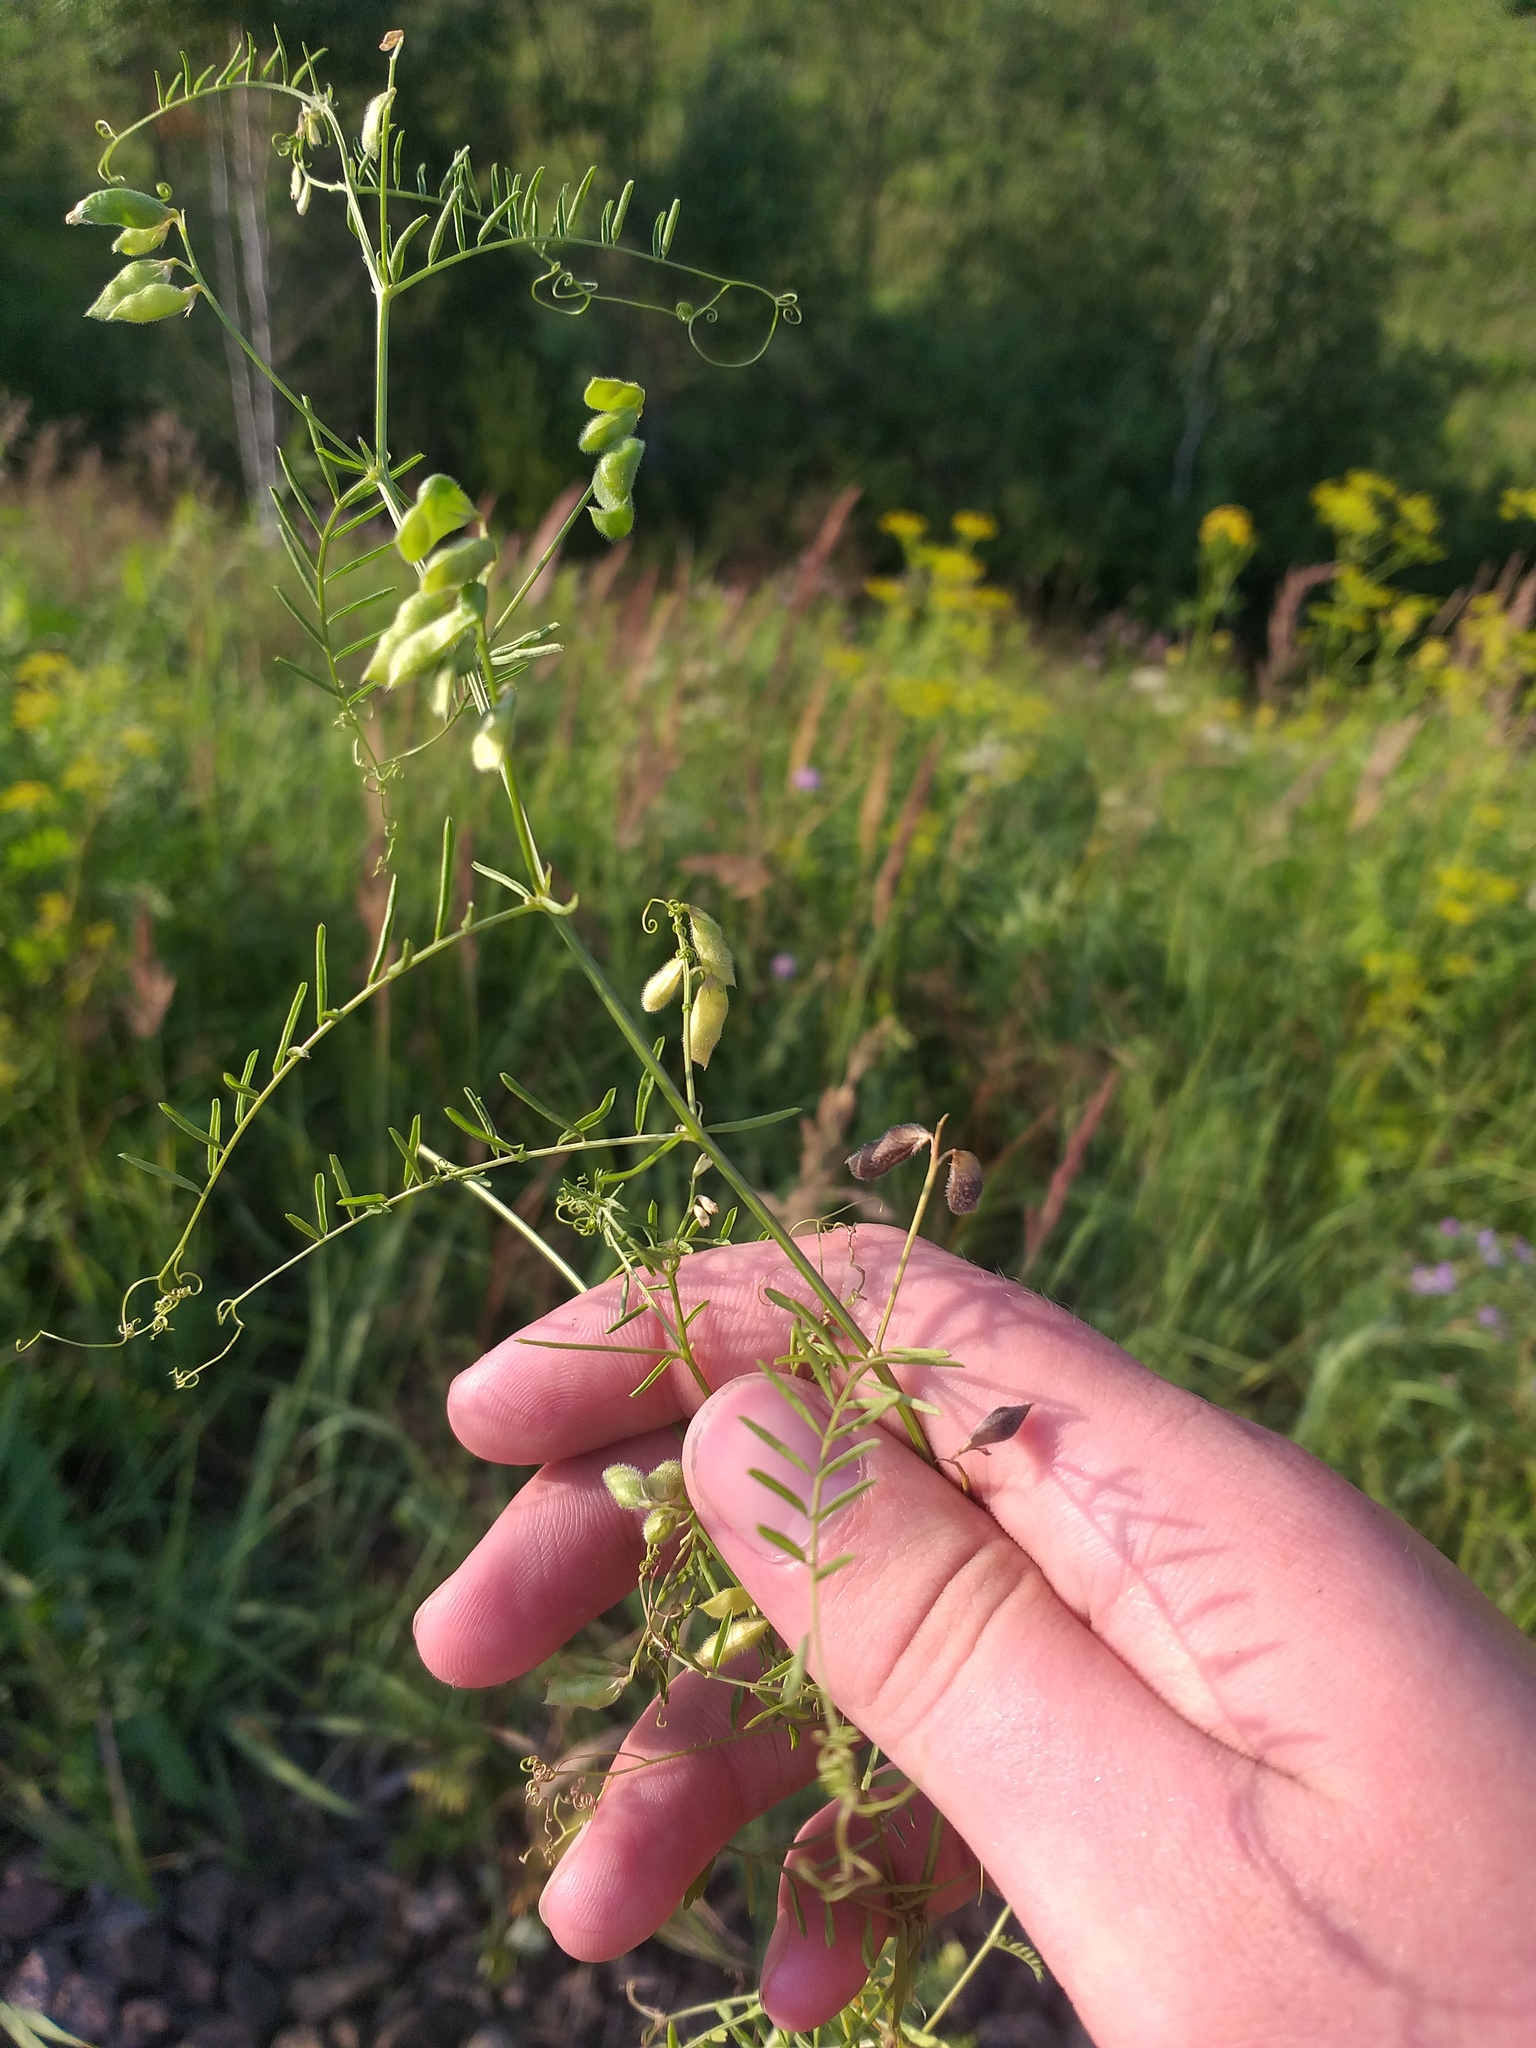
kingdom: Plantae
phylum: Tracheophyta
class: Magnoliopsida
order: Fabales
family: Fabaceae
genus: Vicia
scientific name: Vicia hirsuta
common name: Tiny vetch
